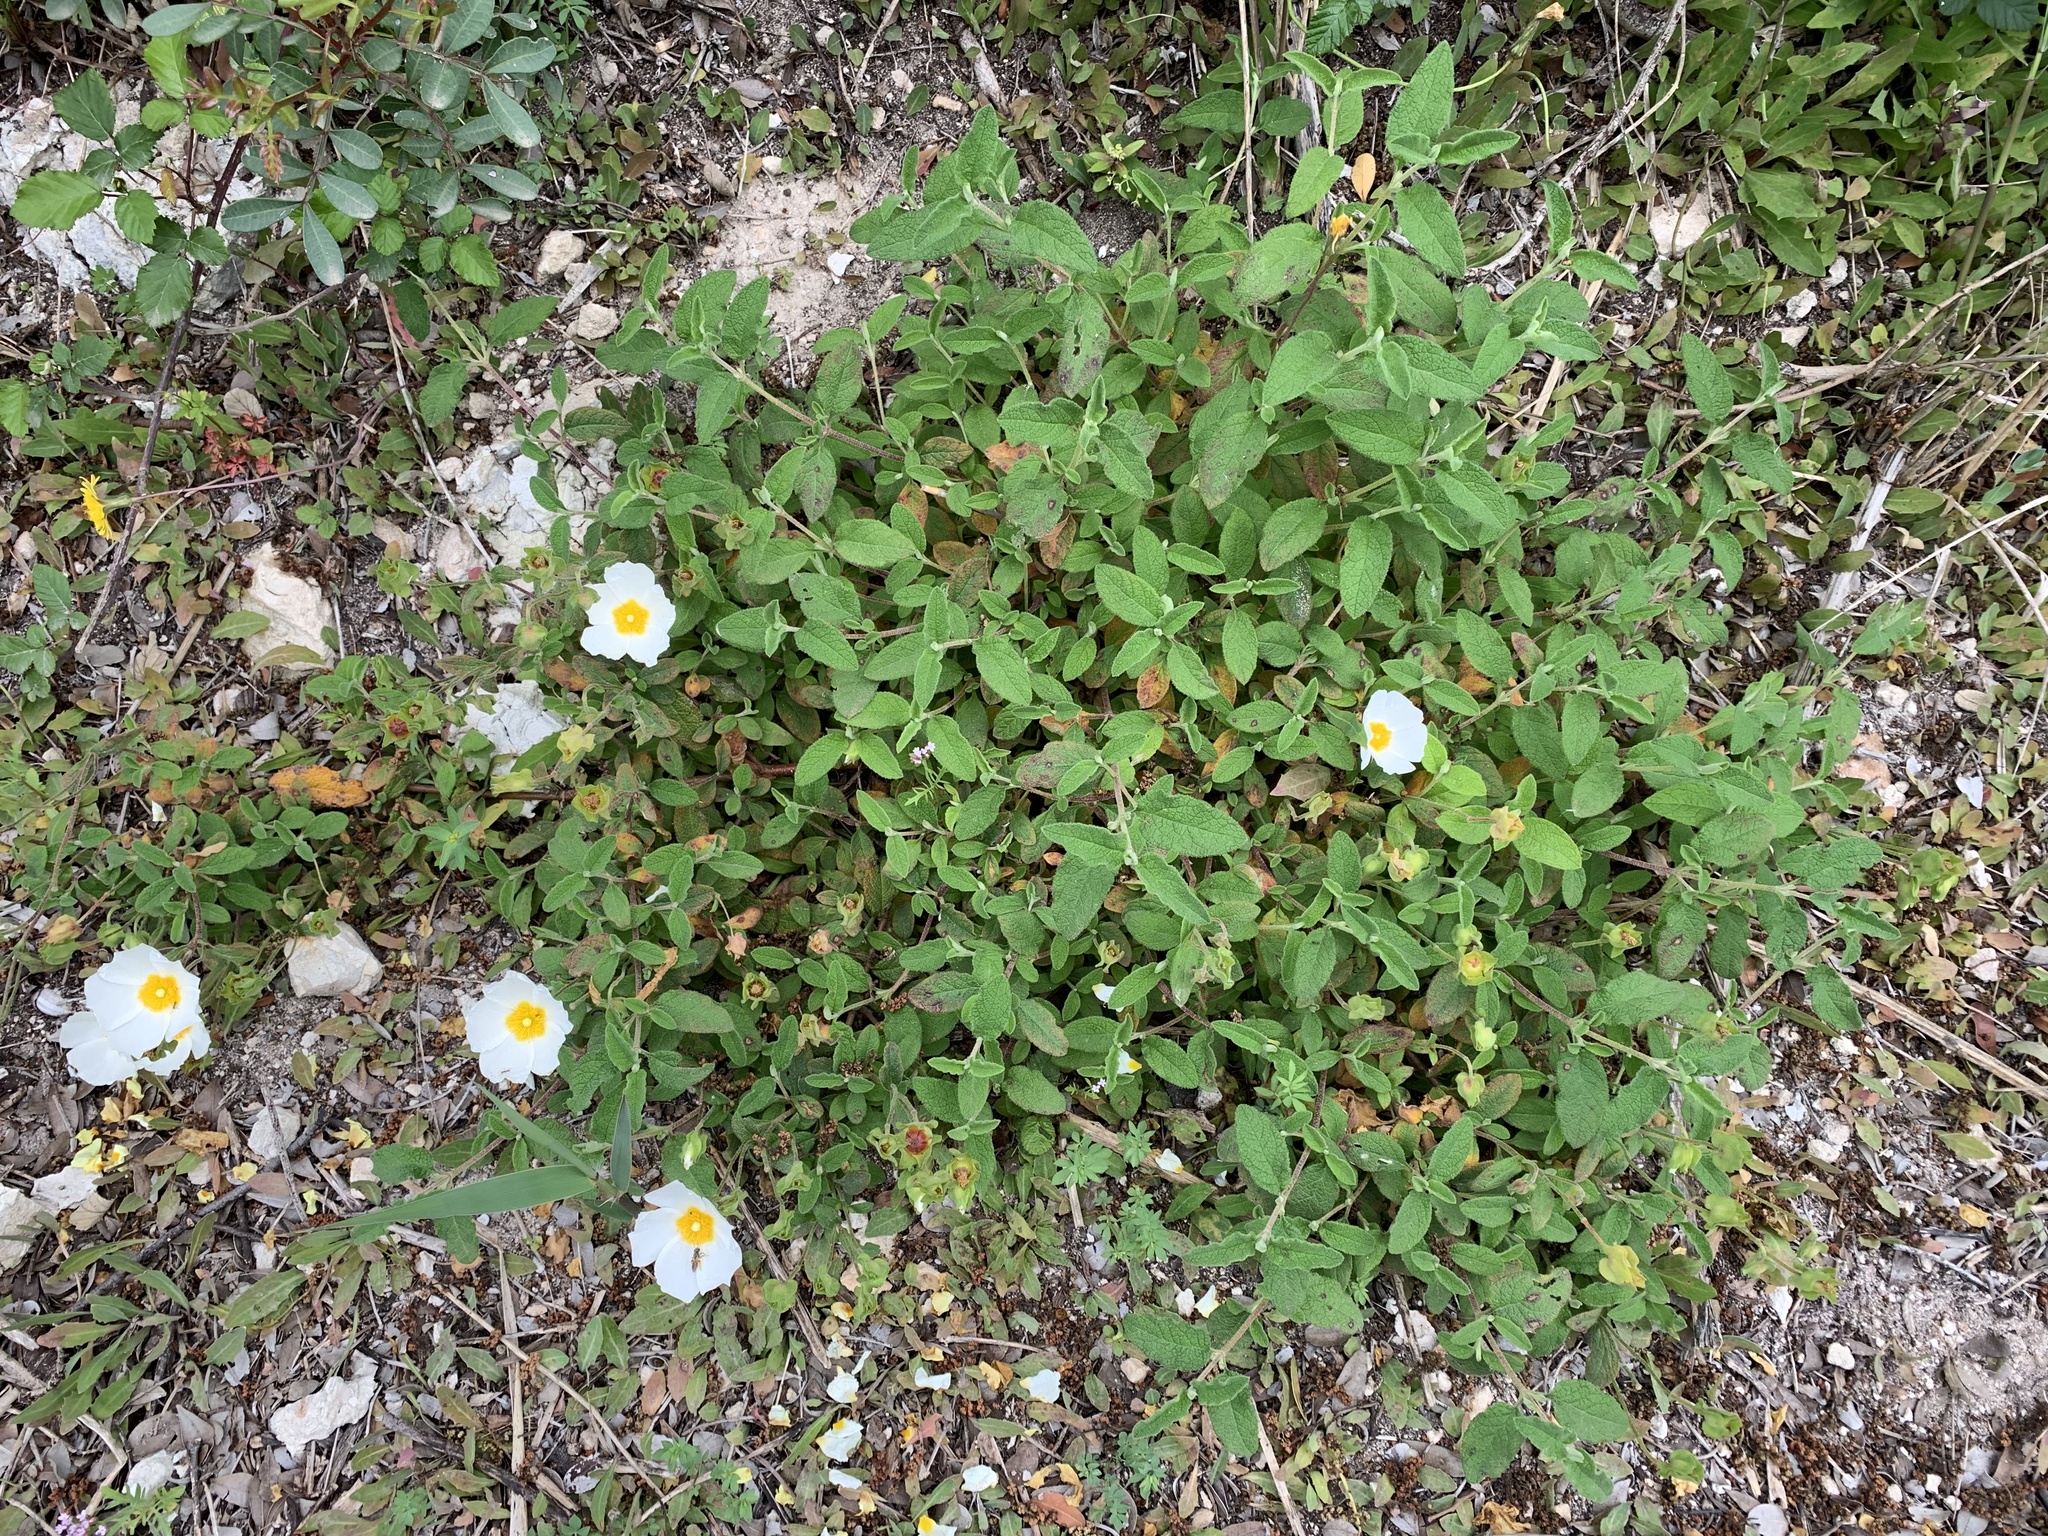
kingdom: Plantae
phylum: Tracheophyta
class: Magnoliopsida
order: Malvales
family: Cistaceae
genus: Cistus
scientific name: Cistus salviifolius
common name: Salvia cistus
